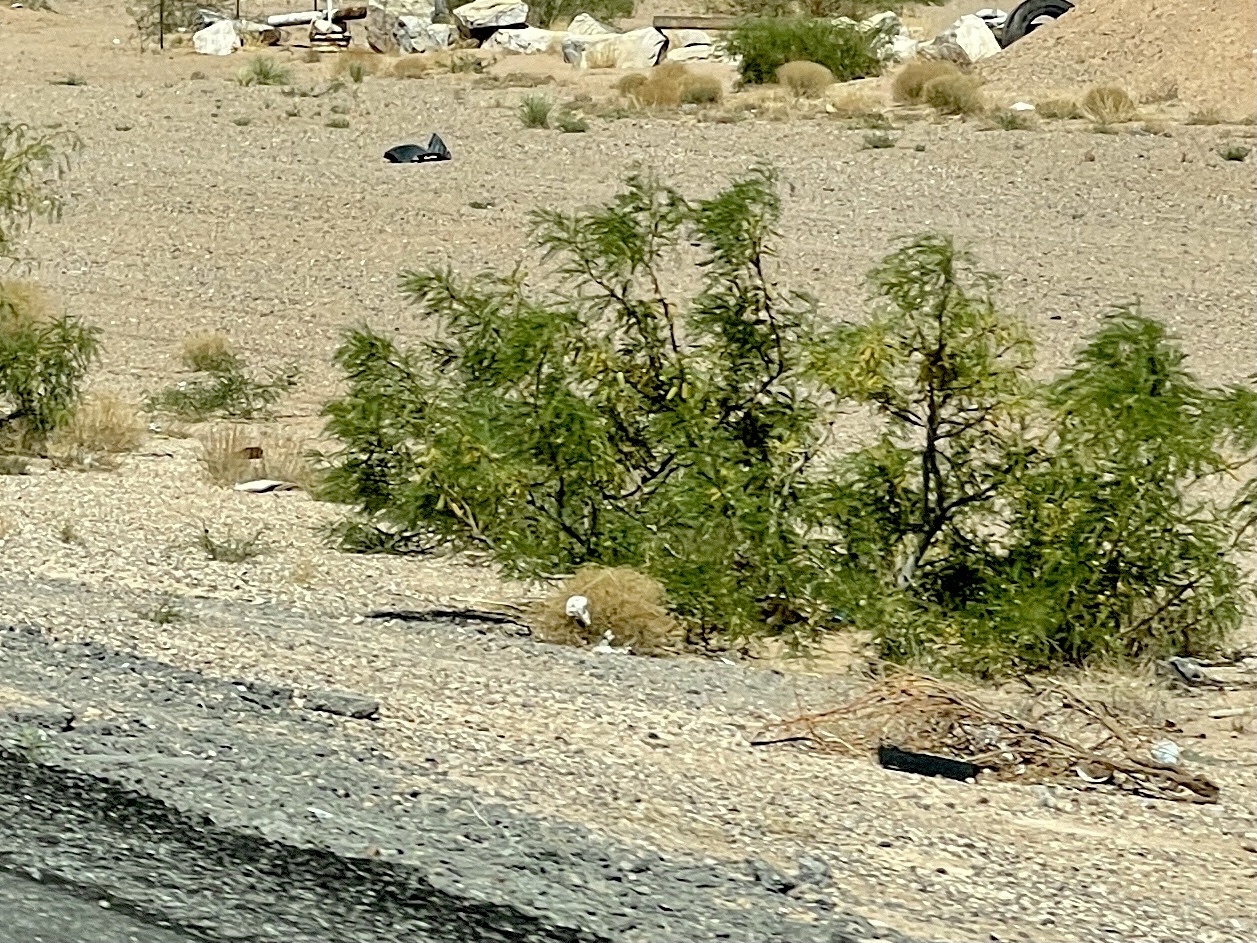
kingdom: Plantae
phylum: Tracheophyta
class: Magnoliopsida
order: Fabales
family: Fabaceae
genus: Prosopis
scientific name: Prosopis glandulosa
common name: Honey mesquite
